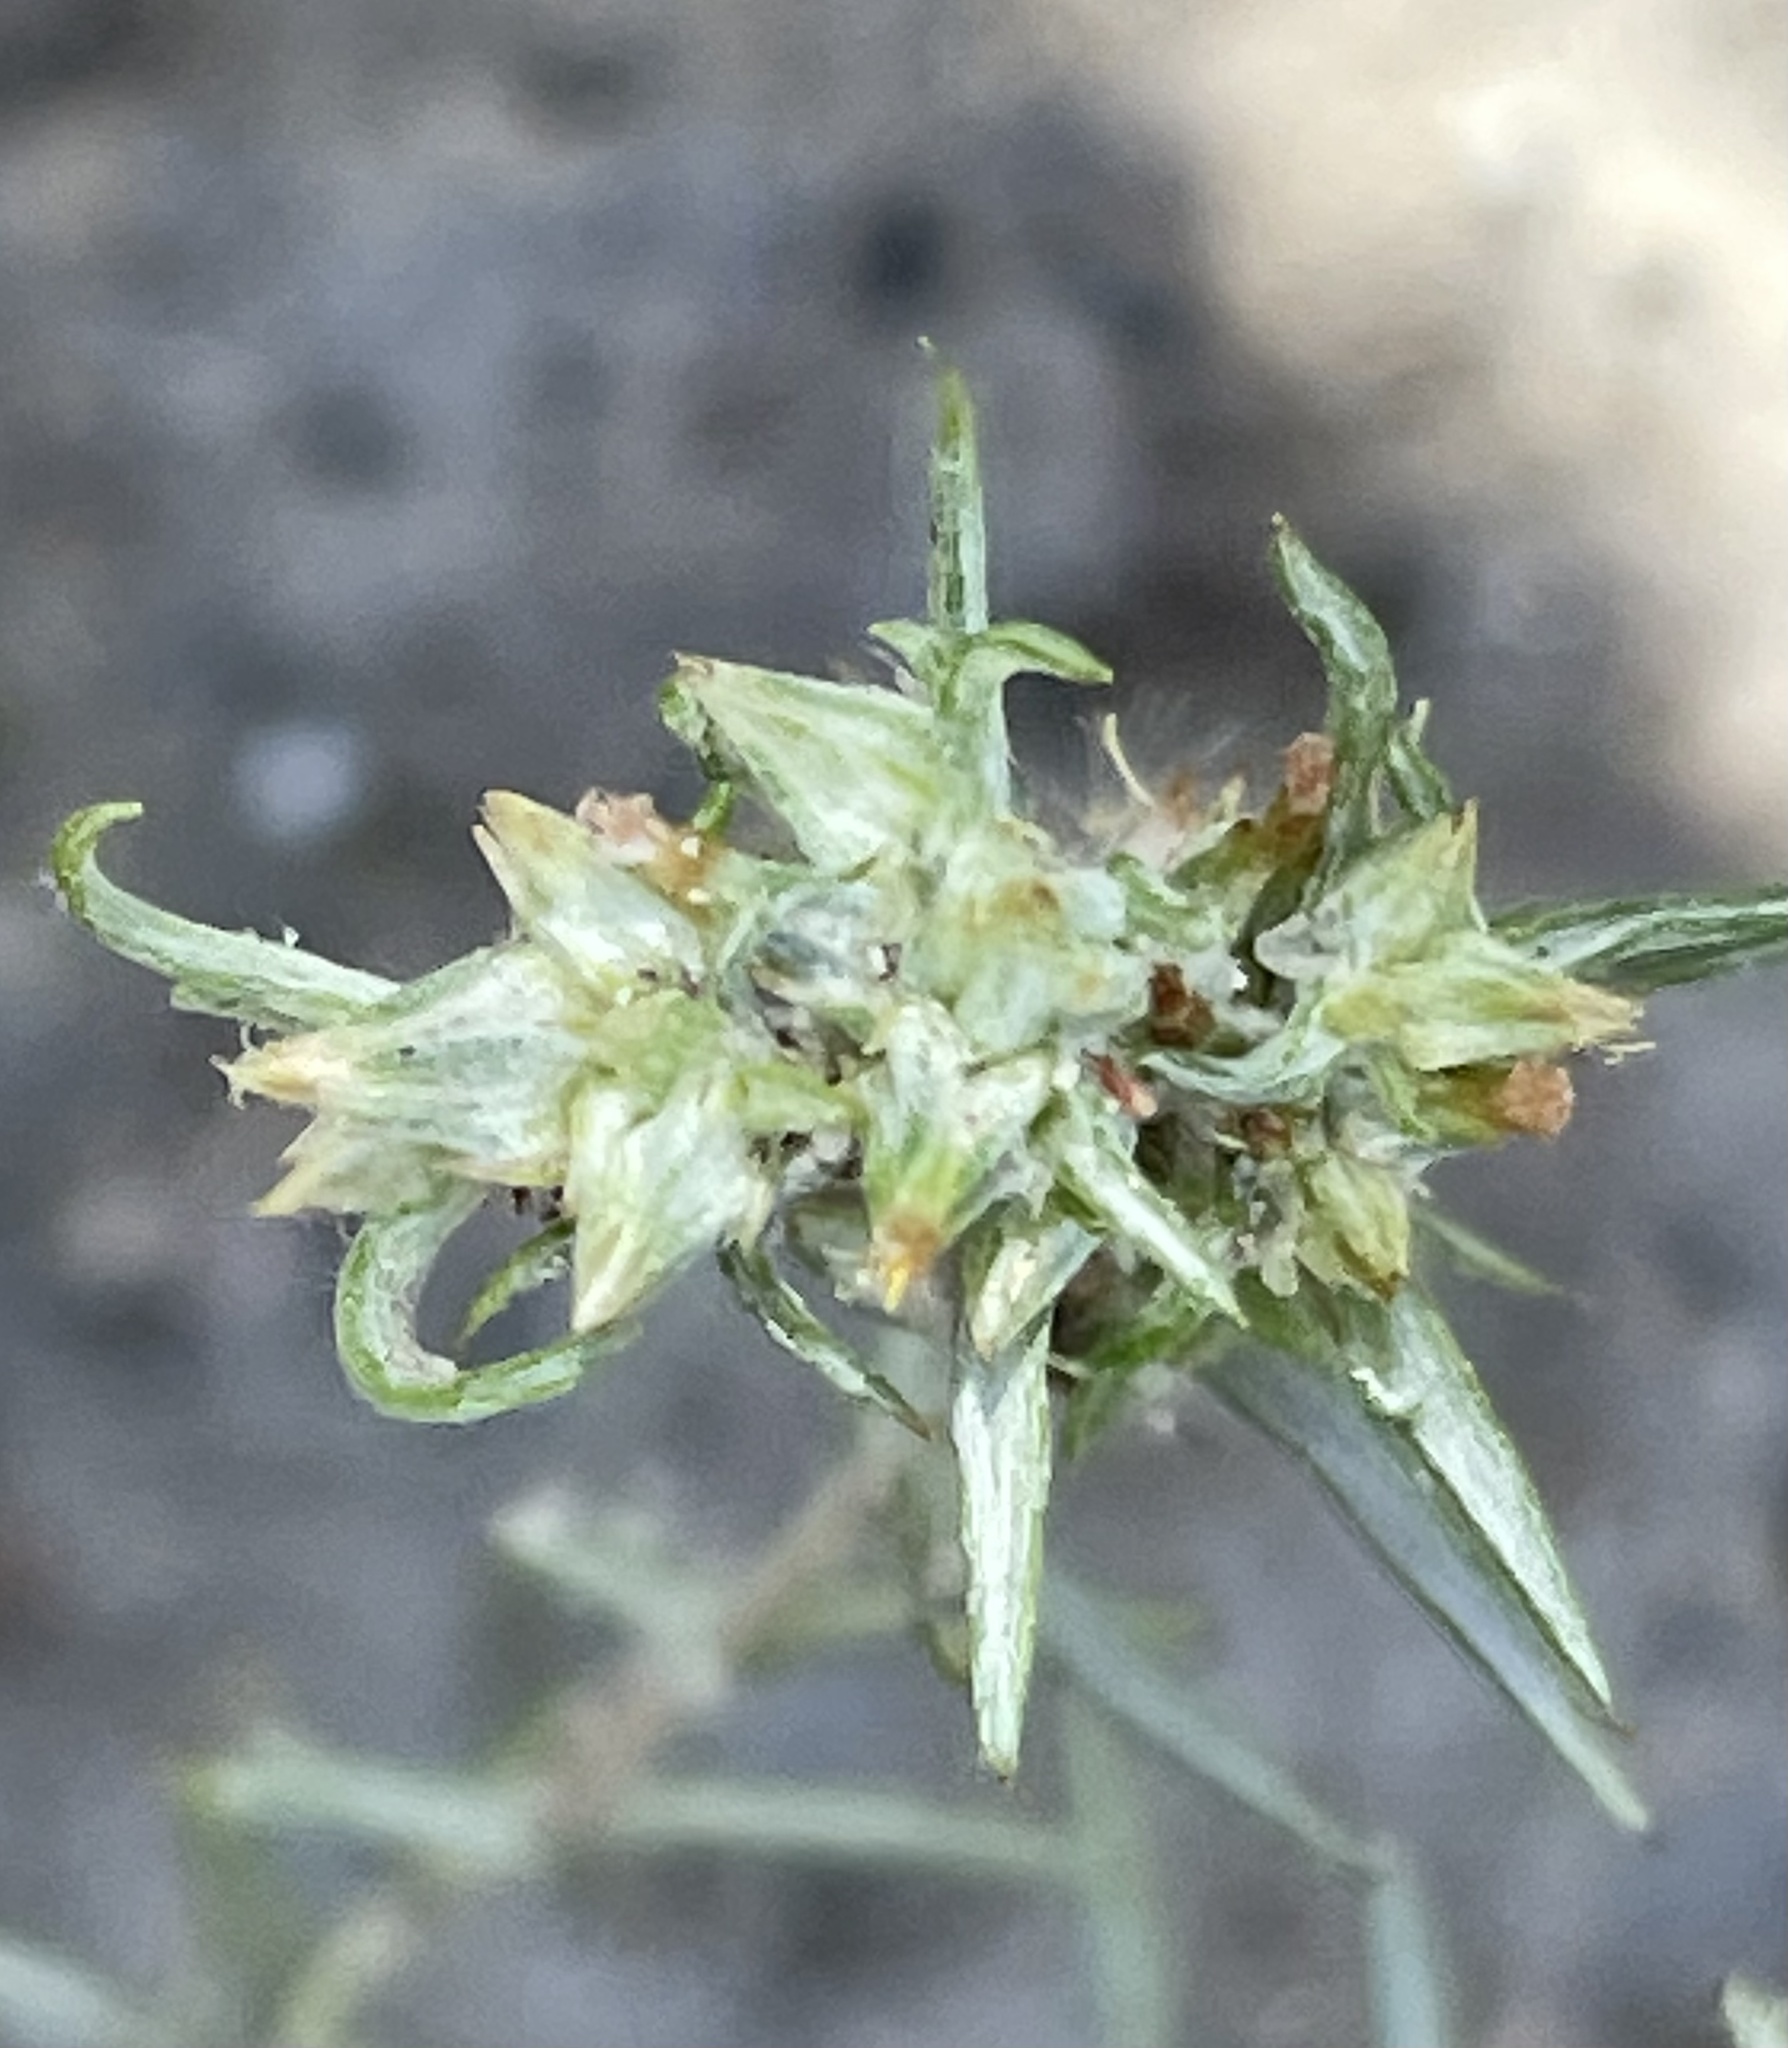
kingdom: Plantae
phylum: Tracheophyta
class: Magnoliopsida
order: Asterales
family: Asteraceae
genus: Logfia
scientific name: Logfia gallica
